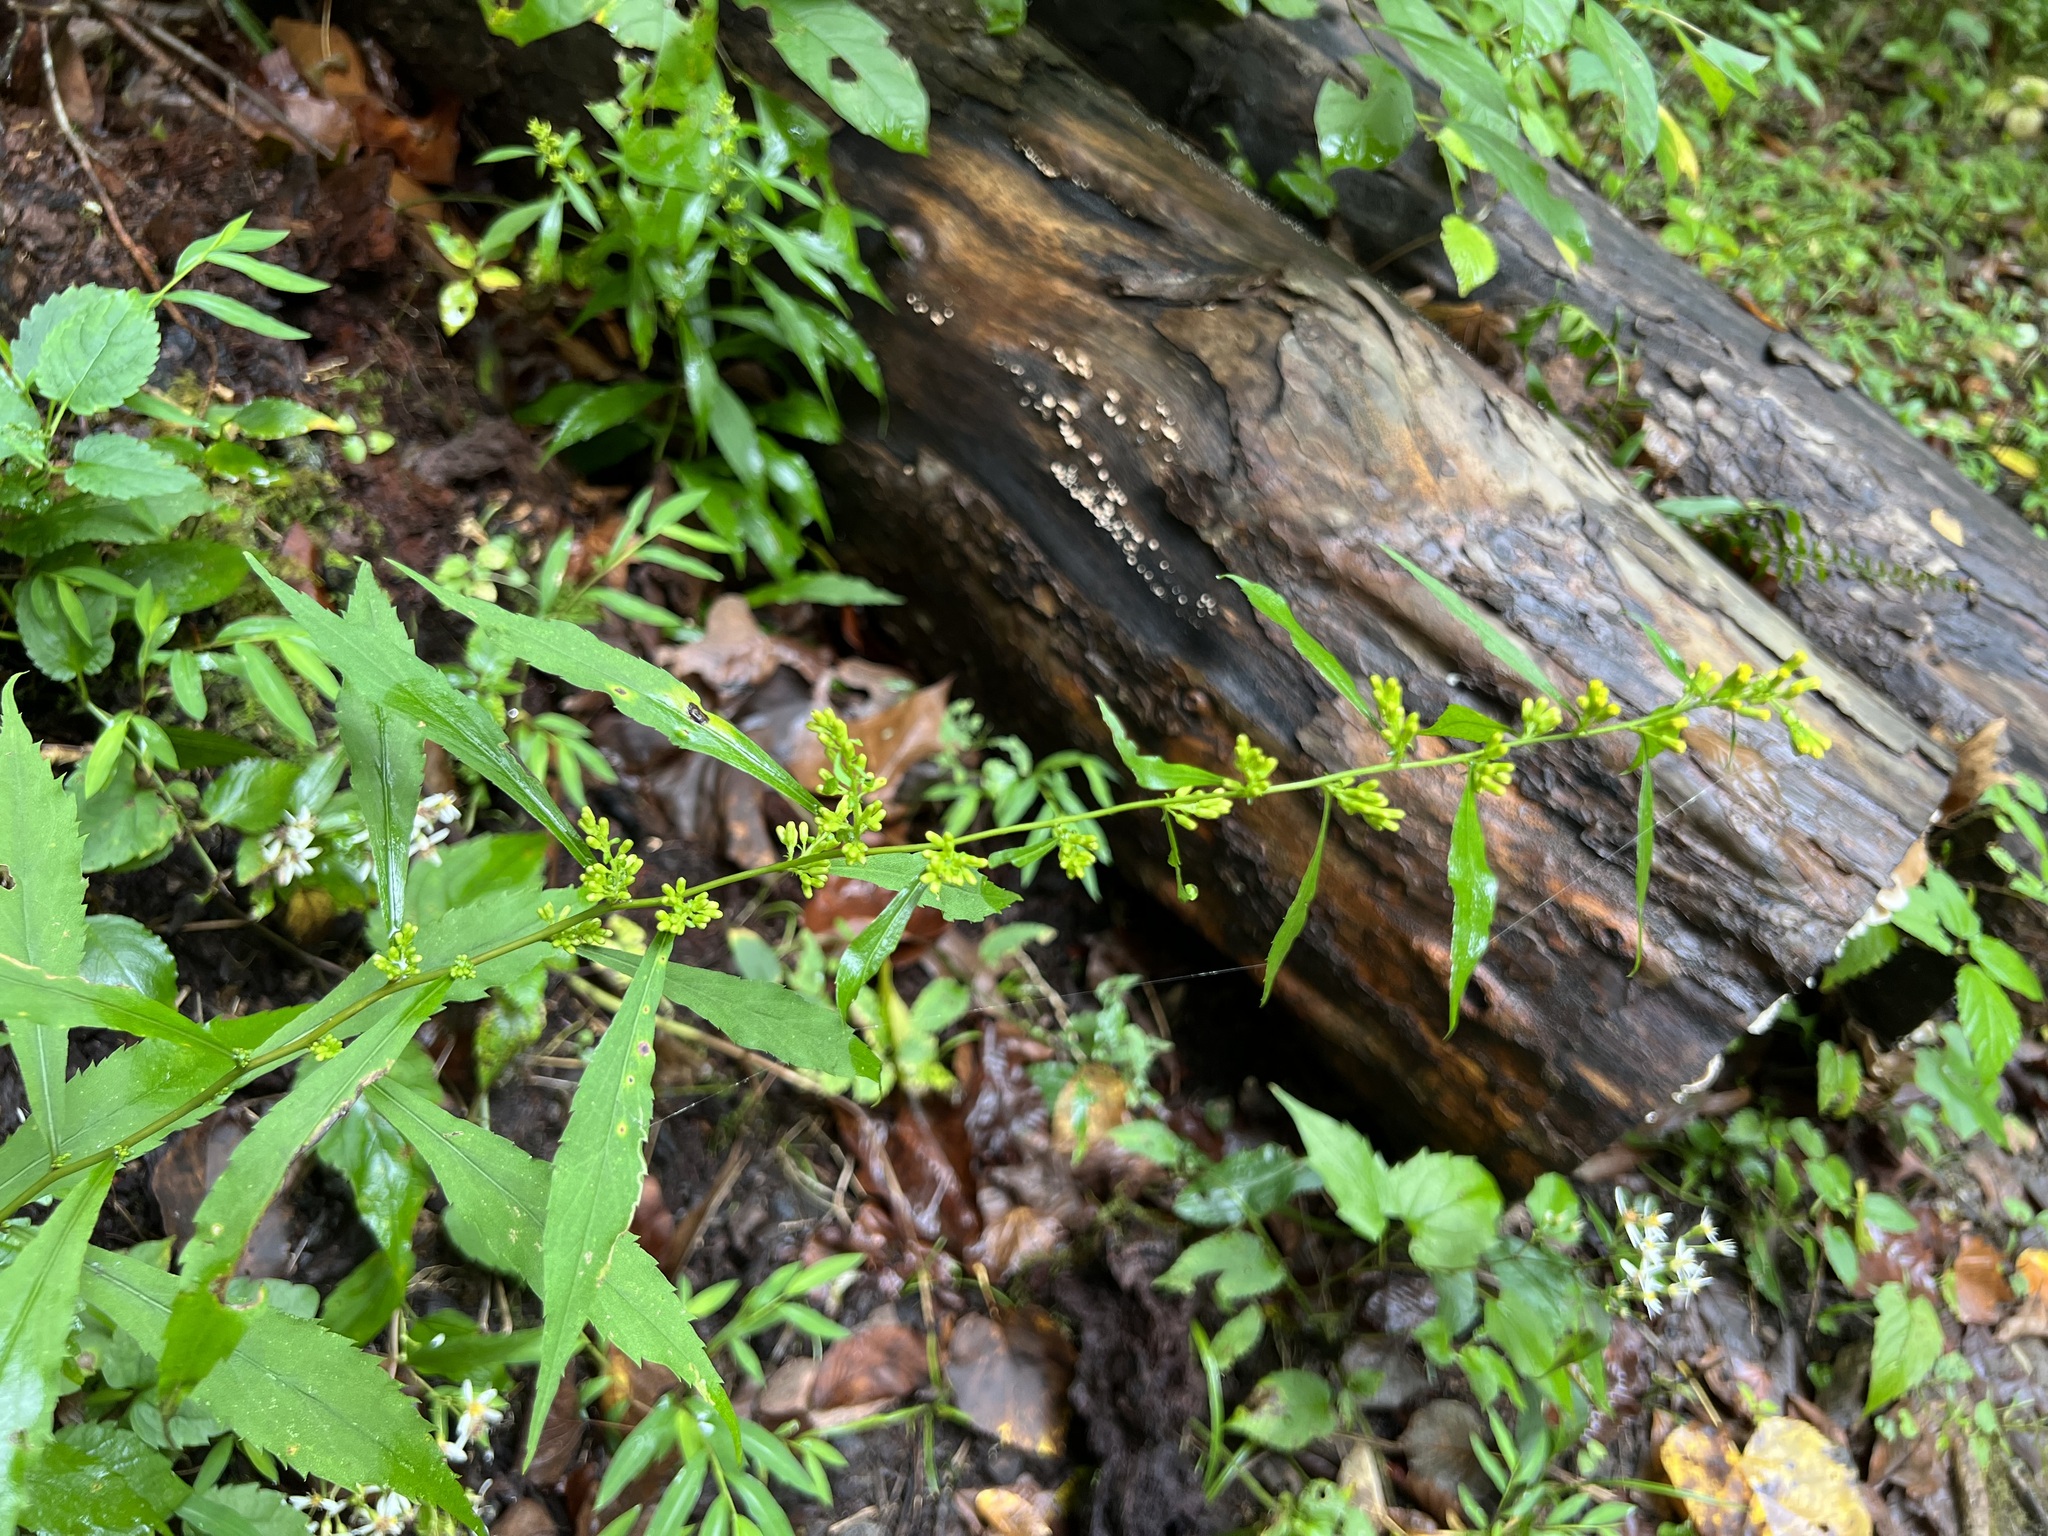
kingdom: Plantae
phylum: Tracheophyta
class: Magnoliopsida
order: Asterales
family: Asteraceae
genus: Solidago
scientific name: Solidago curtisii
